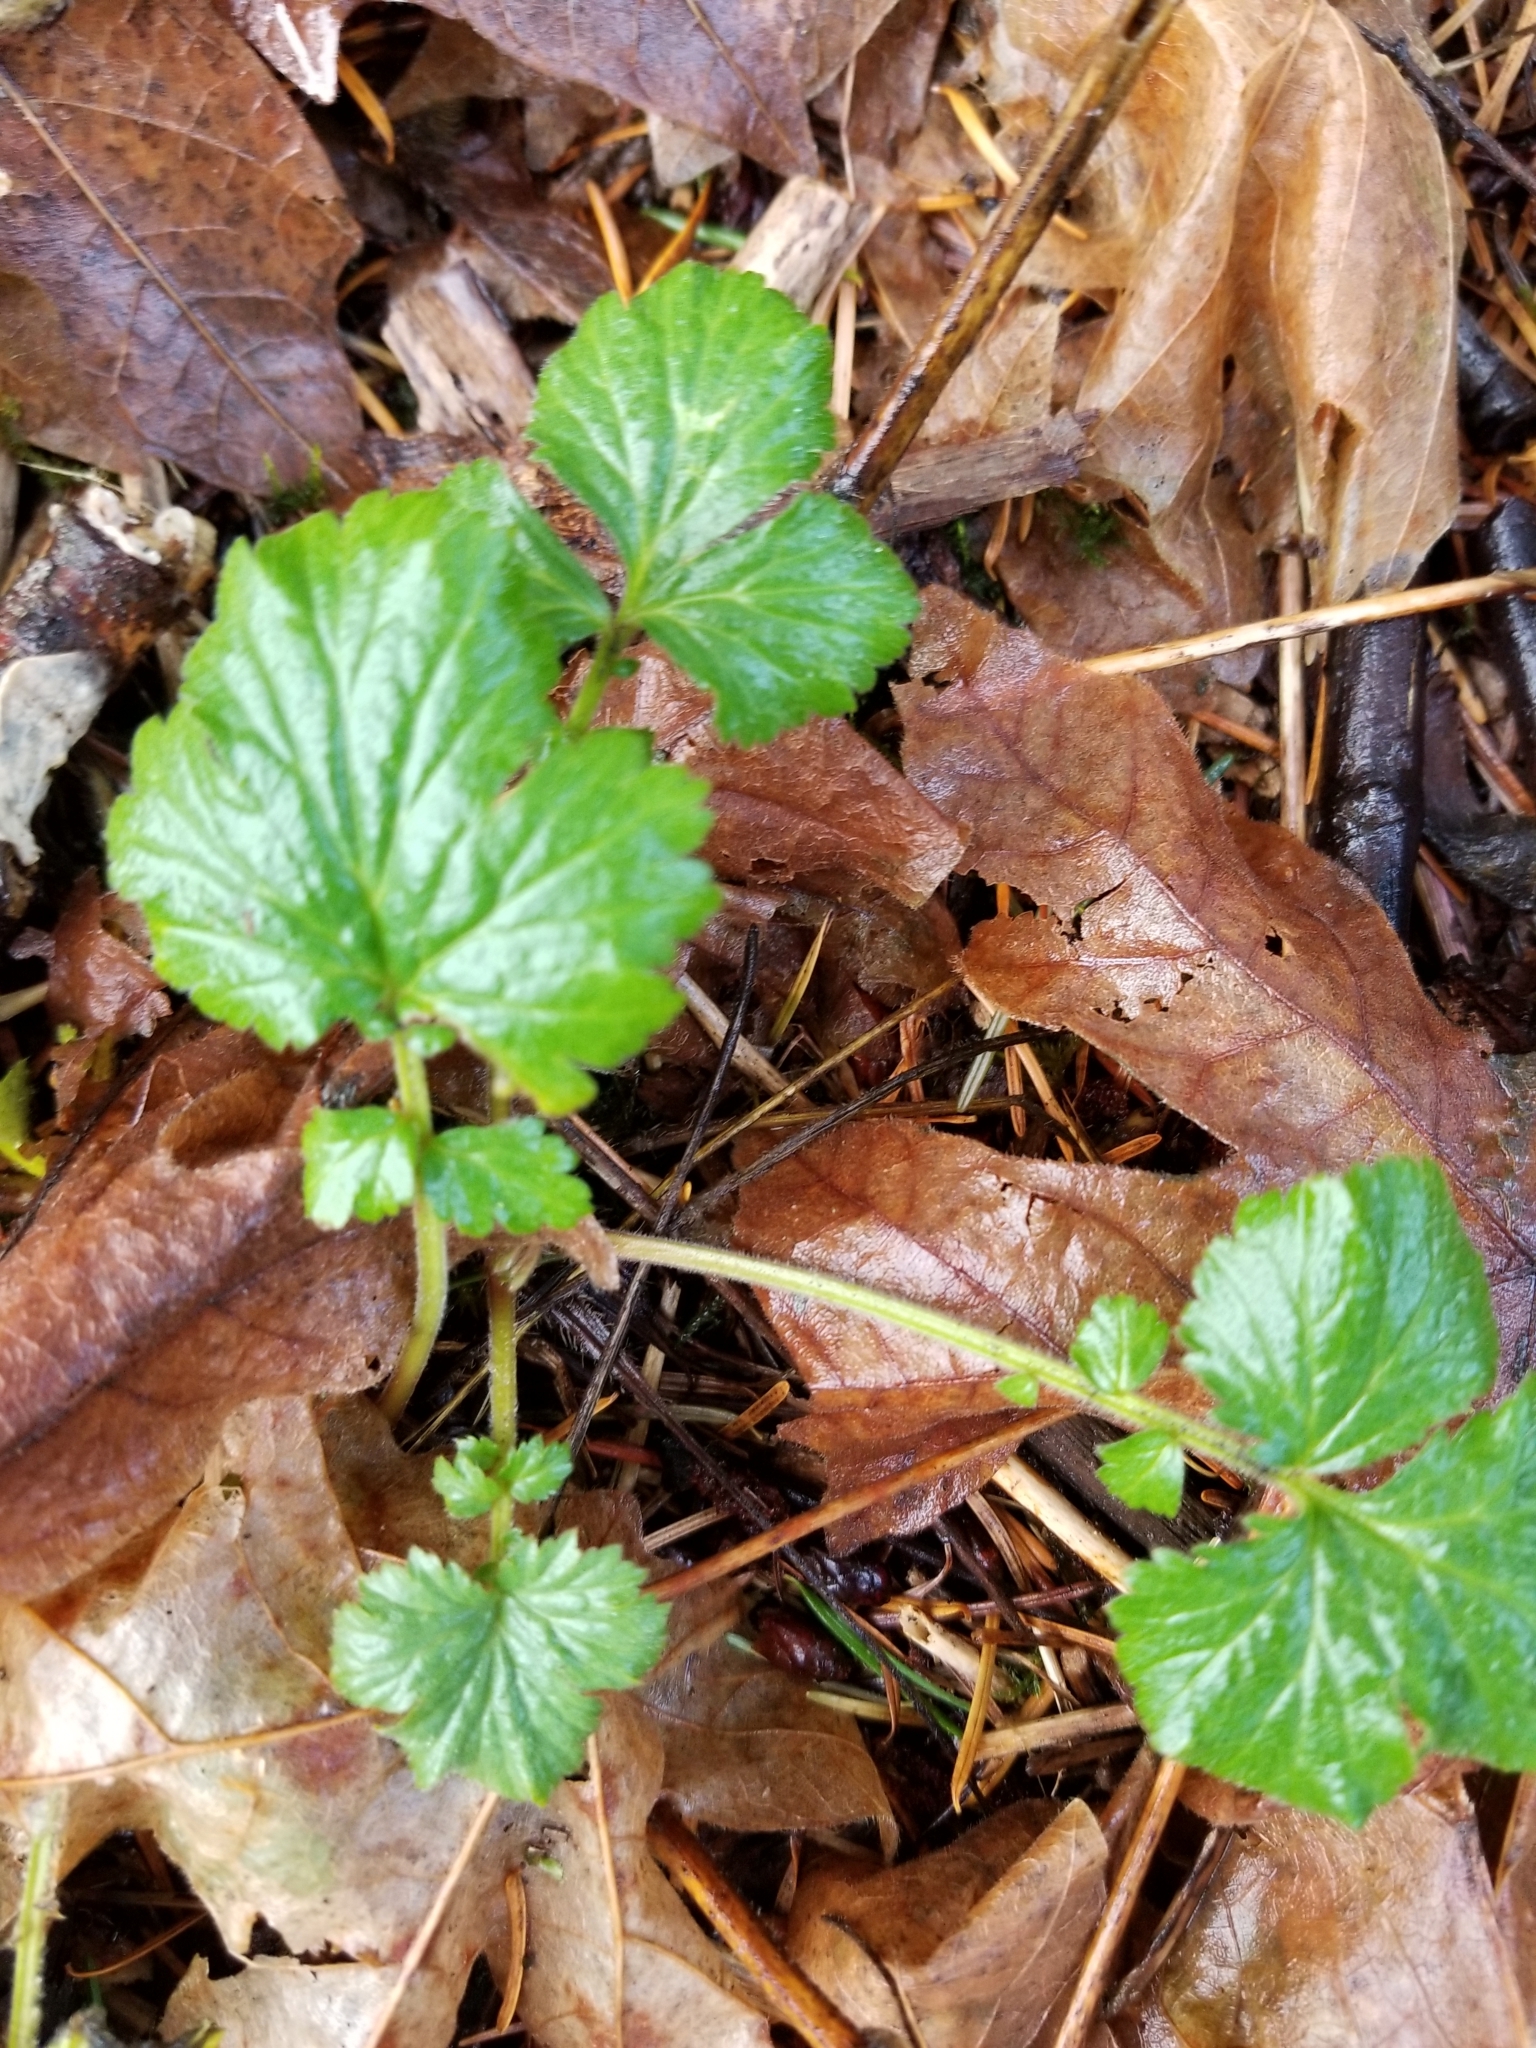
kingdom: Plantae
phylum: Tracheophyta
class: Magnoliopsida
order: Rosales
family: Rosaceae
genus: Geum
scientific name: Geum urbanum
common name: Wood avens
